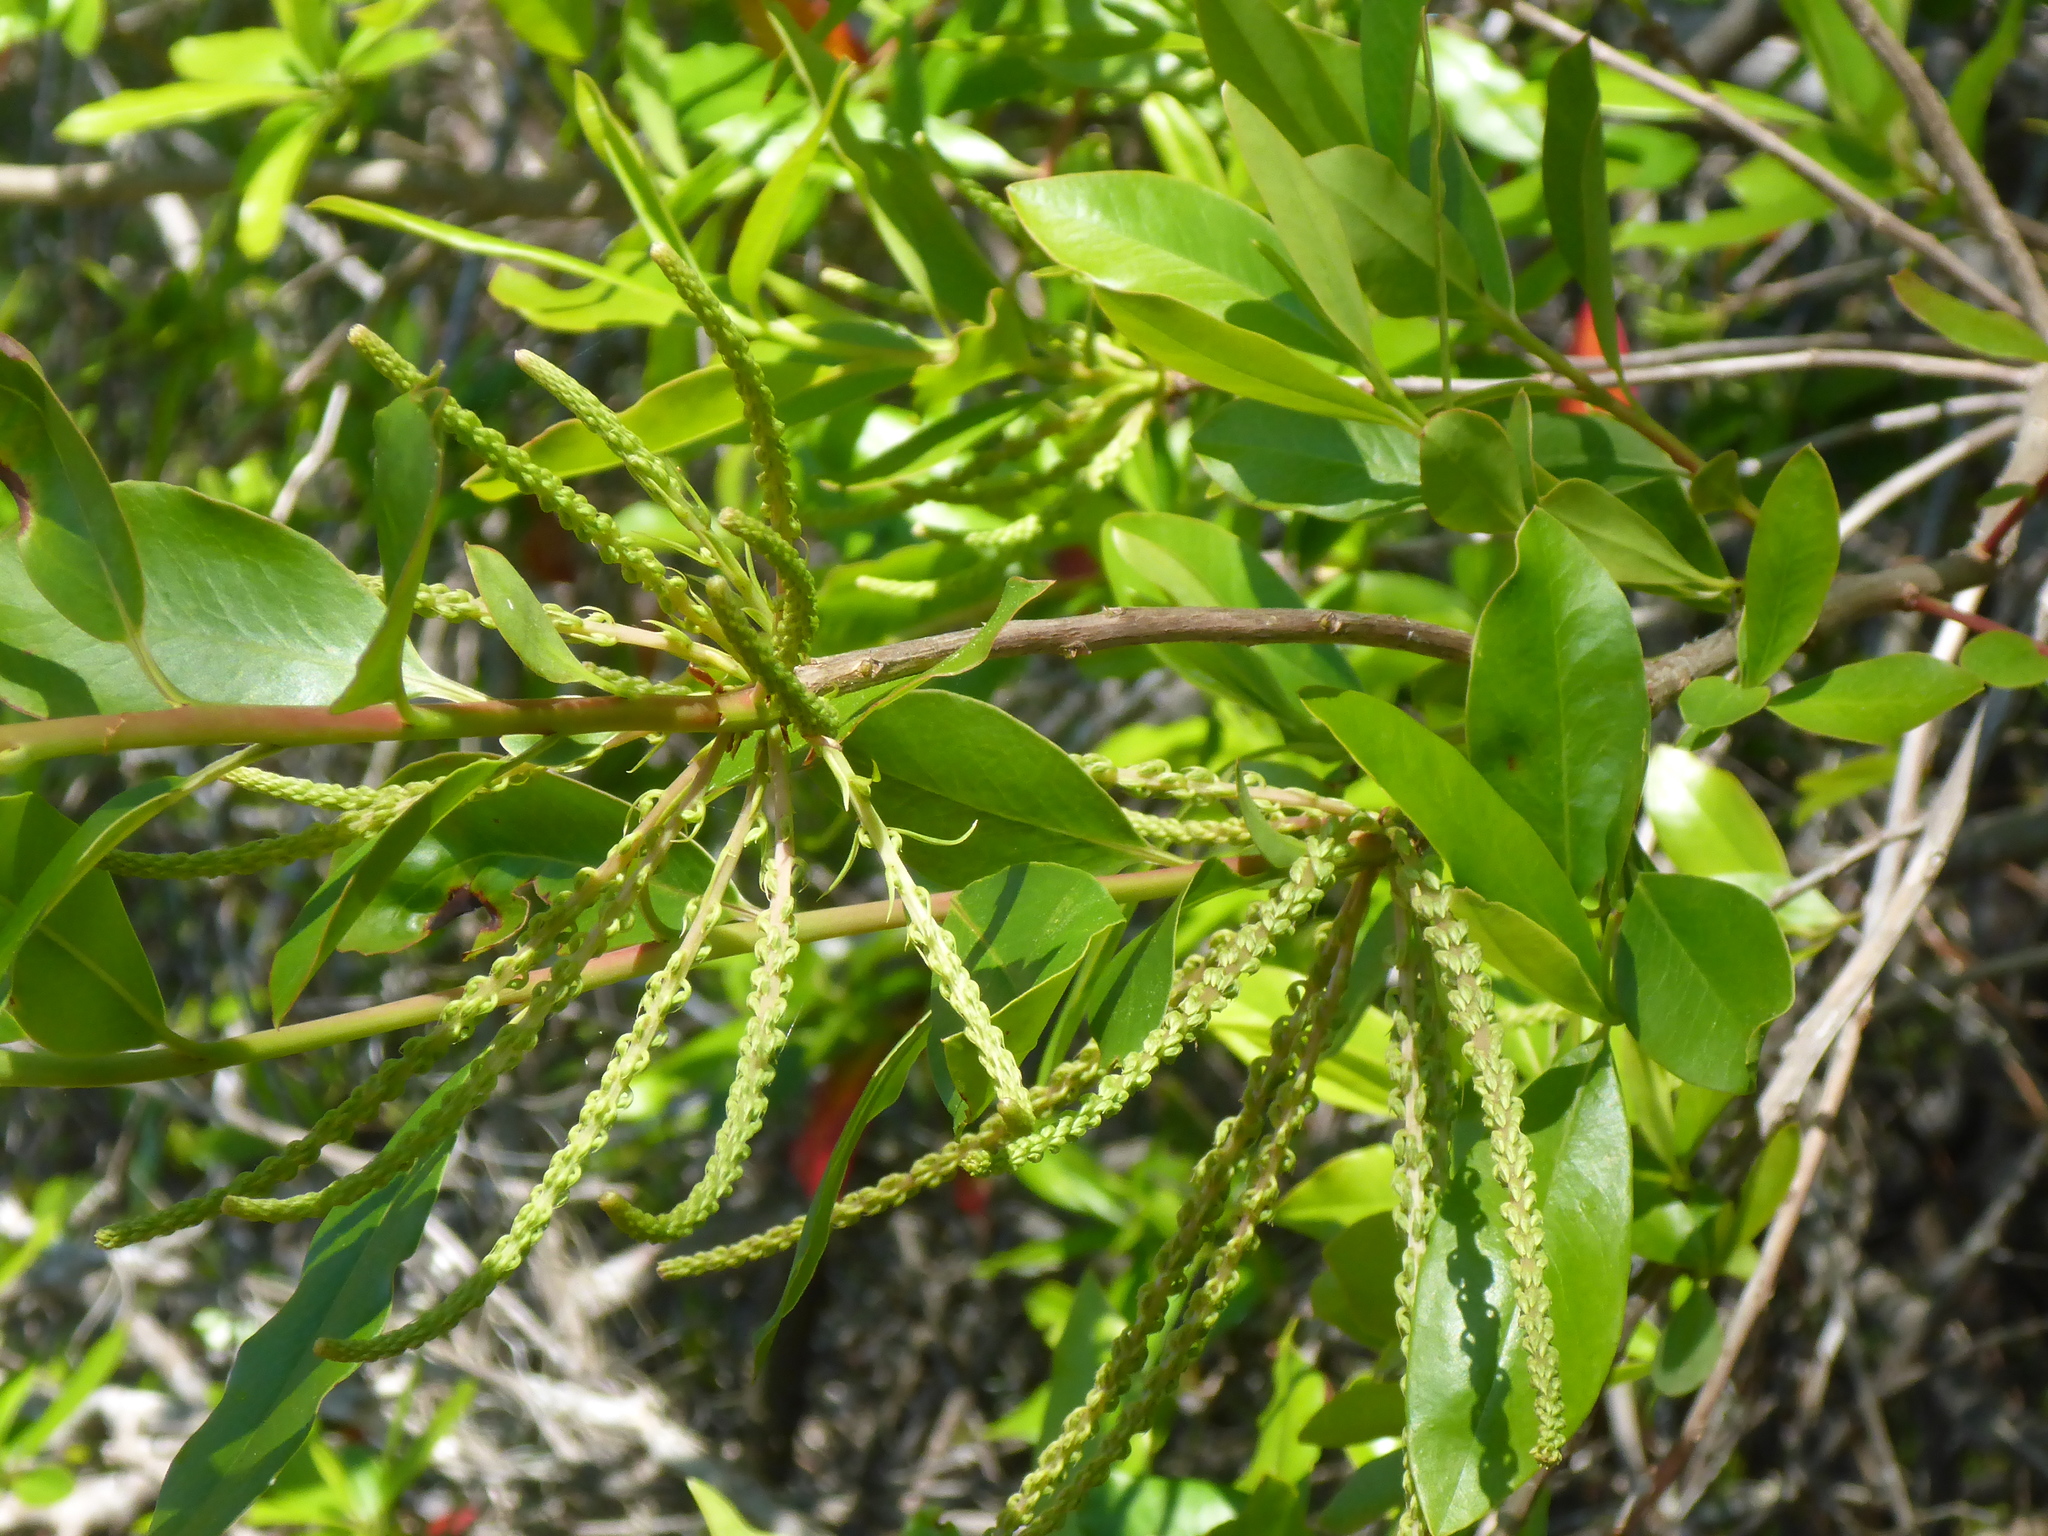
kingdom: Plantae
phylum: Tracheophyta
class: Magnoliopsida
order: Ericales
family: Cyrillaceae
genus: Cyrilla
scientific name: Cyrilla racemiflora
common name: Black titi
